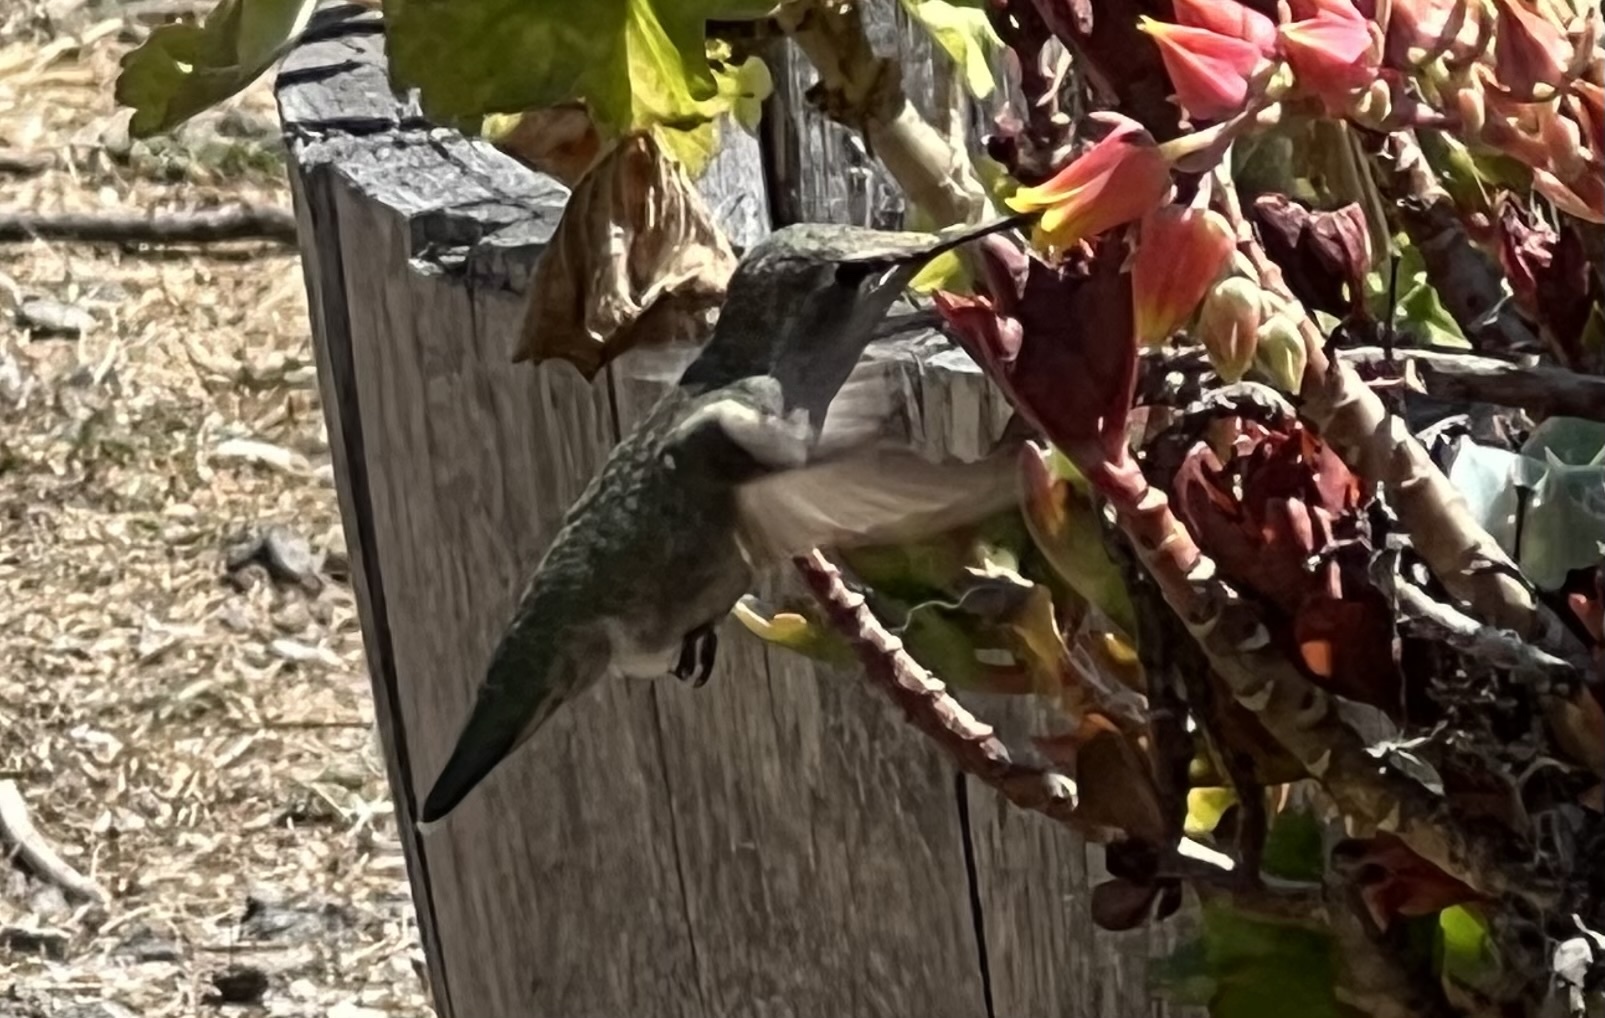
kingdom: Animalia
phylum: Chordata
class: Aves
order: Apodiformes
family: Trochilidae
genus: Calypte
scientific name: Calypte anna
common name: Anna's hummingbird
